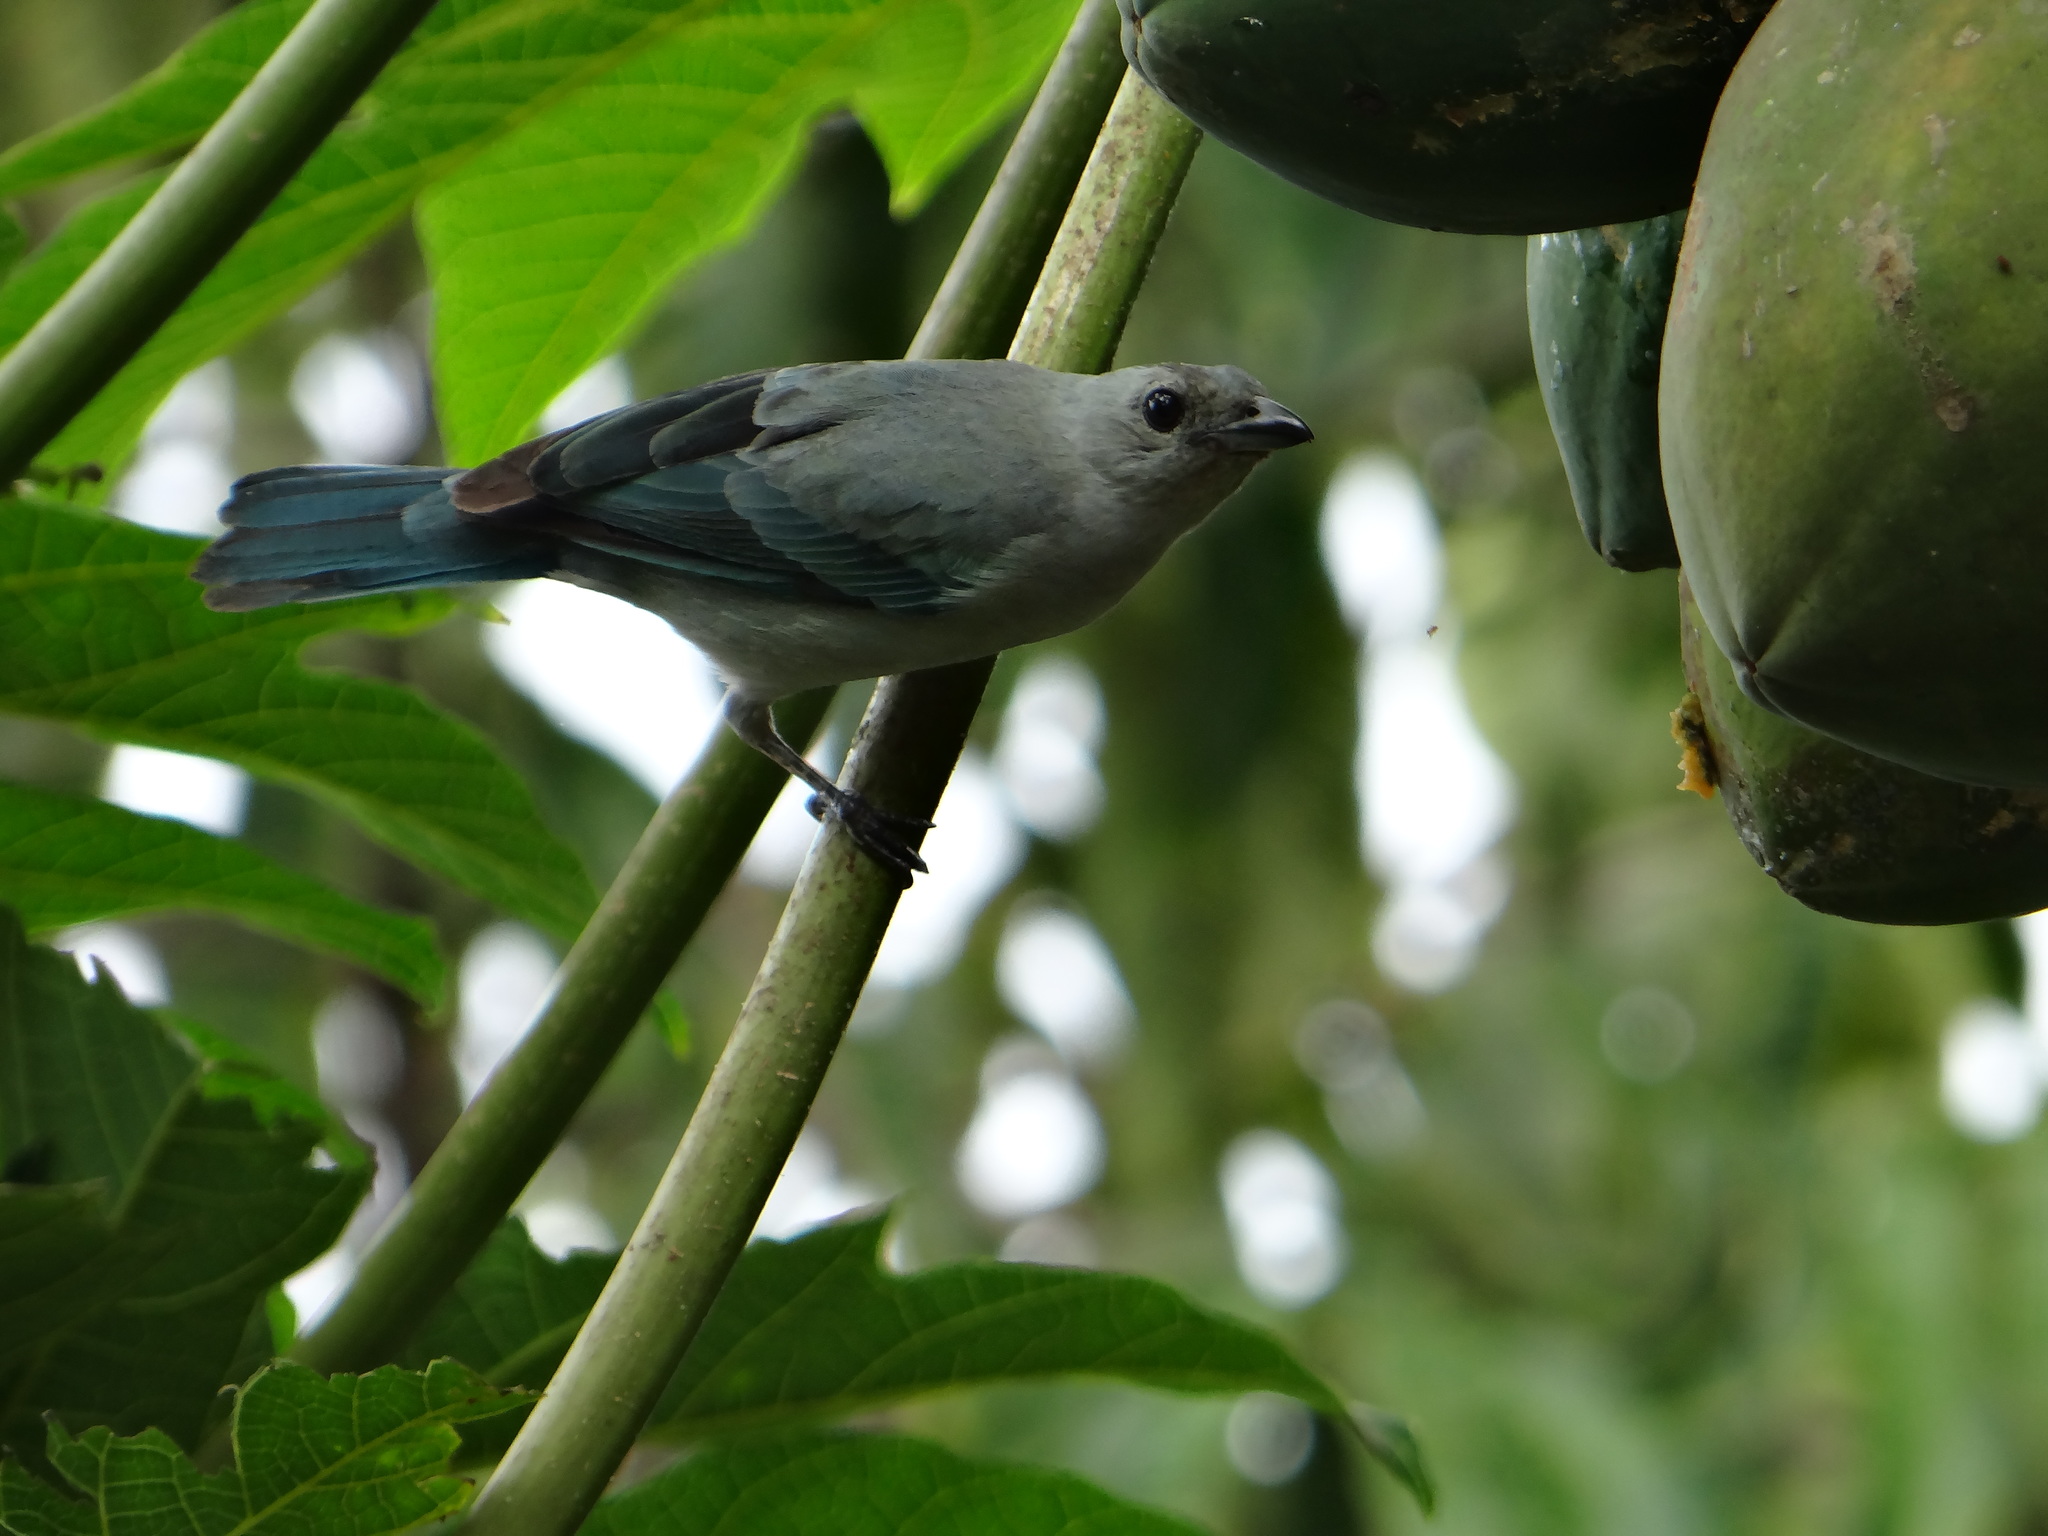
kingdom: Animalia
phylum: Chordata
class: Aves
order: Passeriformes
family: Thraupidae
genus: Thraupis
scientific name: Thraupis episcopus
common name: Blue-grey tanager
